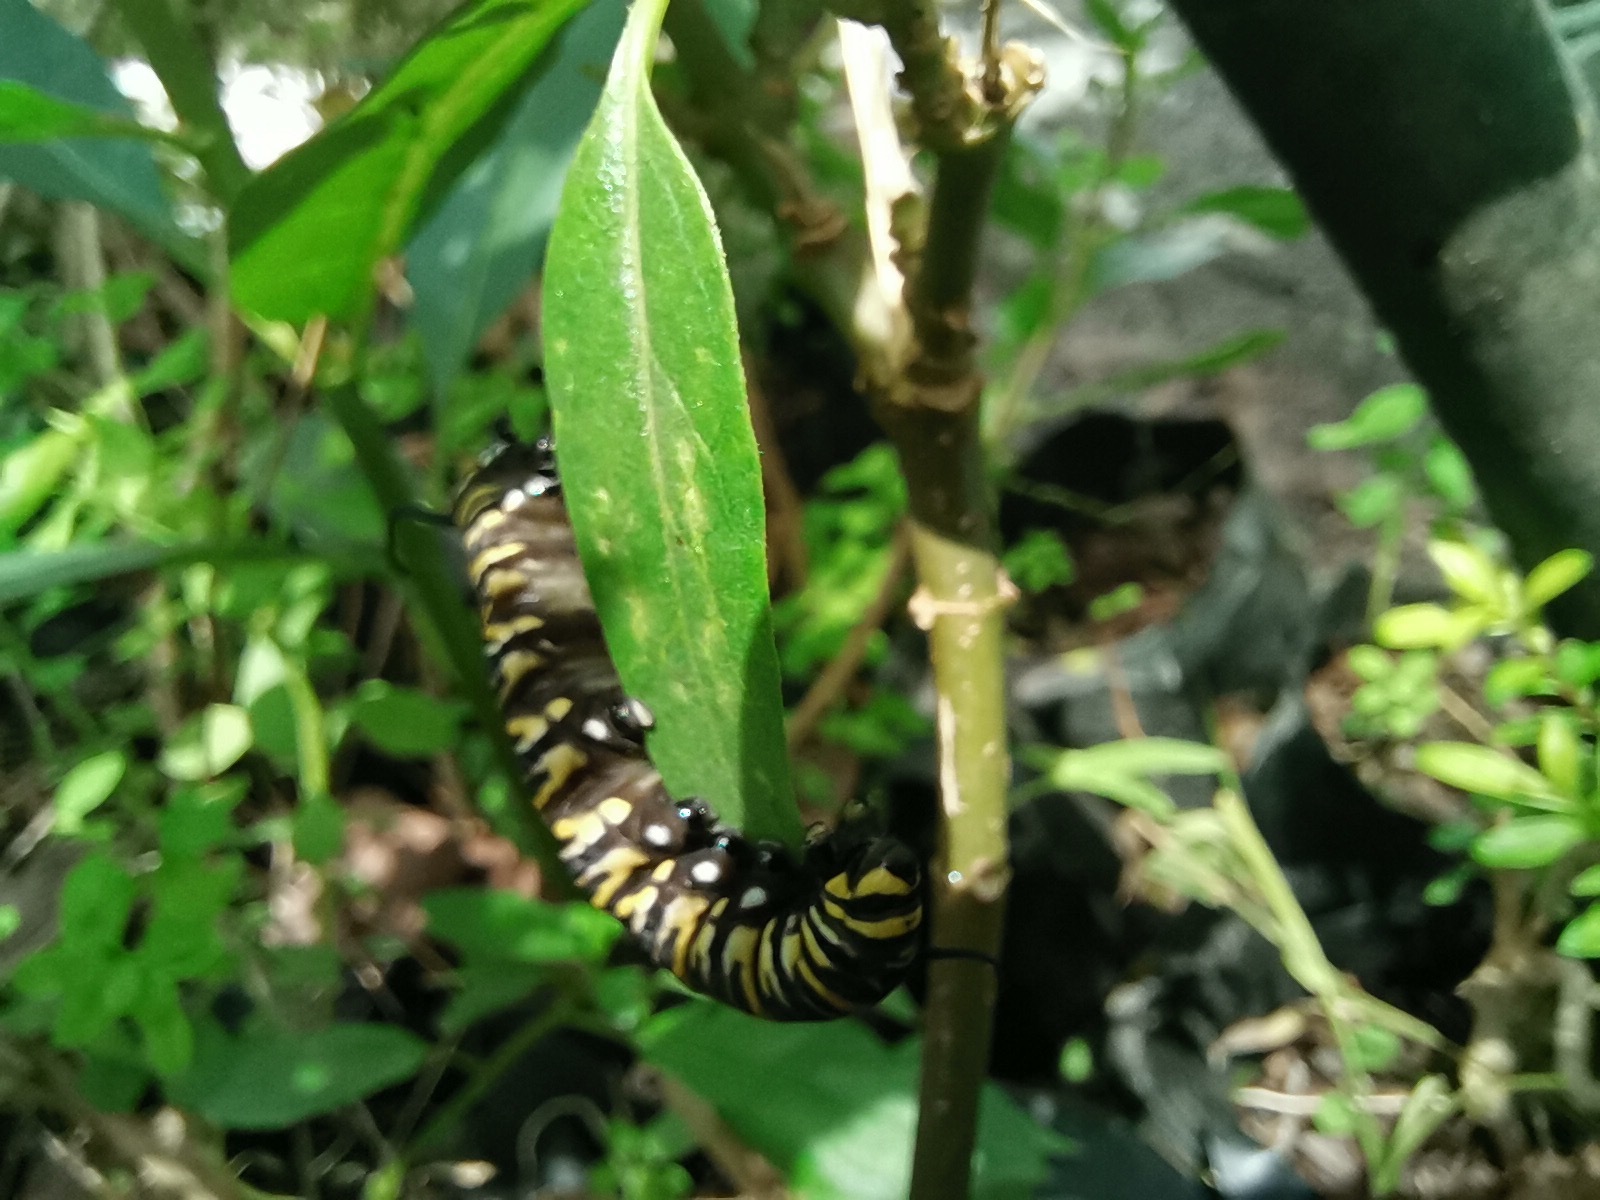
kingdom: Animalia
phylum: Arthropoda
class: Insecta
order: Lepidoptera
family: Nymphalidae
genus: Danaus
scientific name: Danaus plexippus
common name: Monarch
